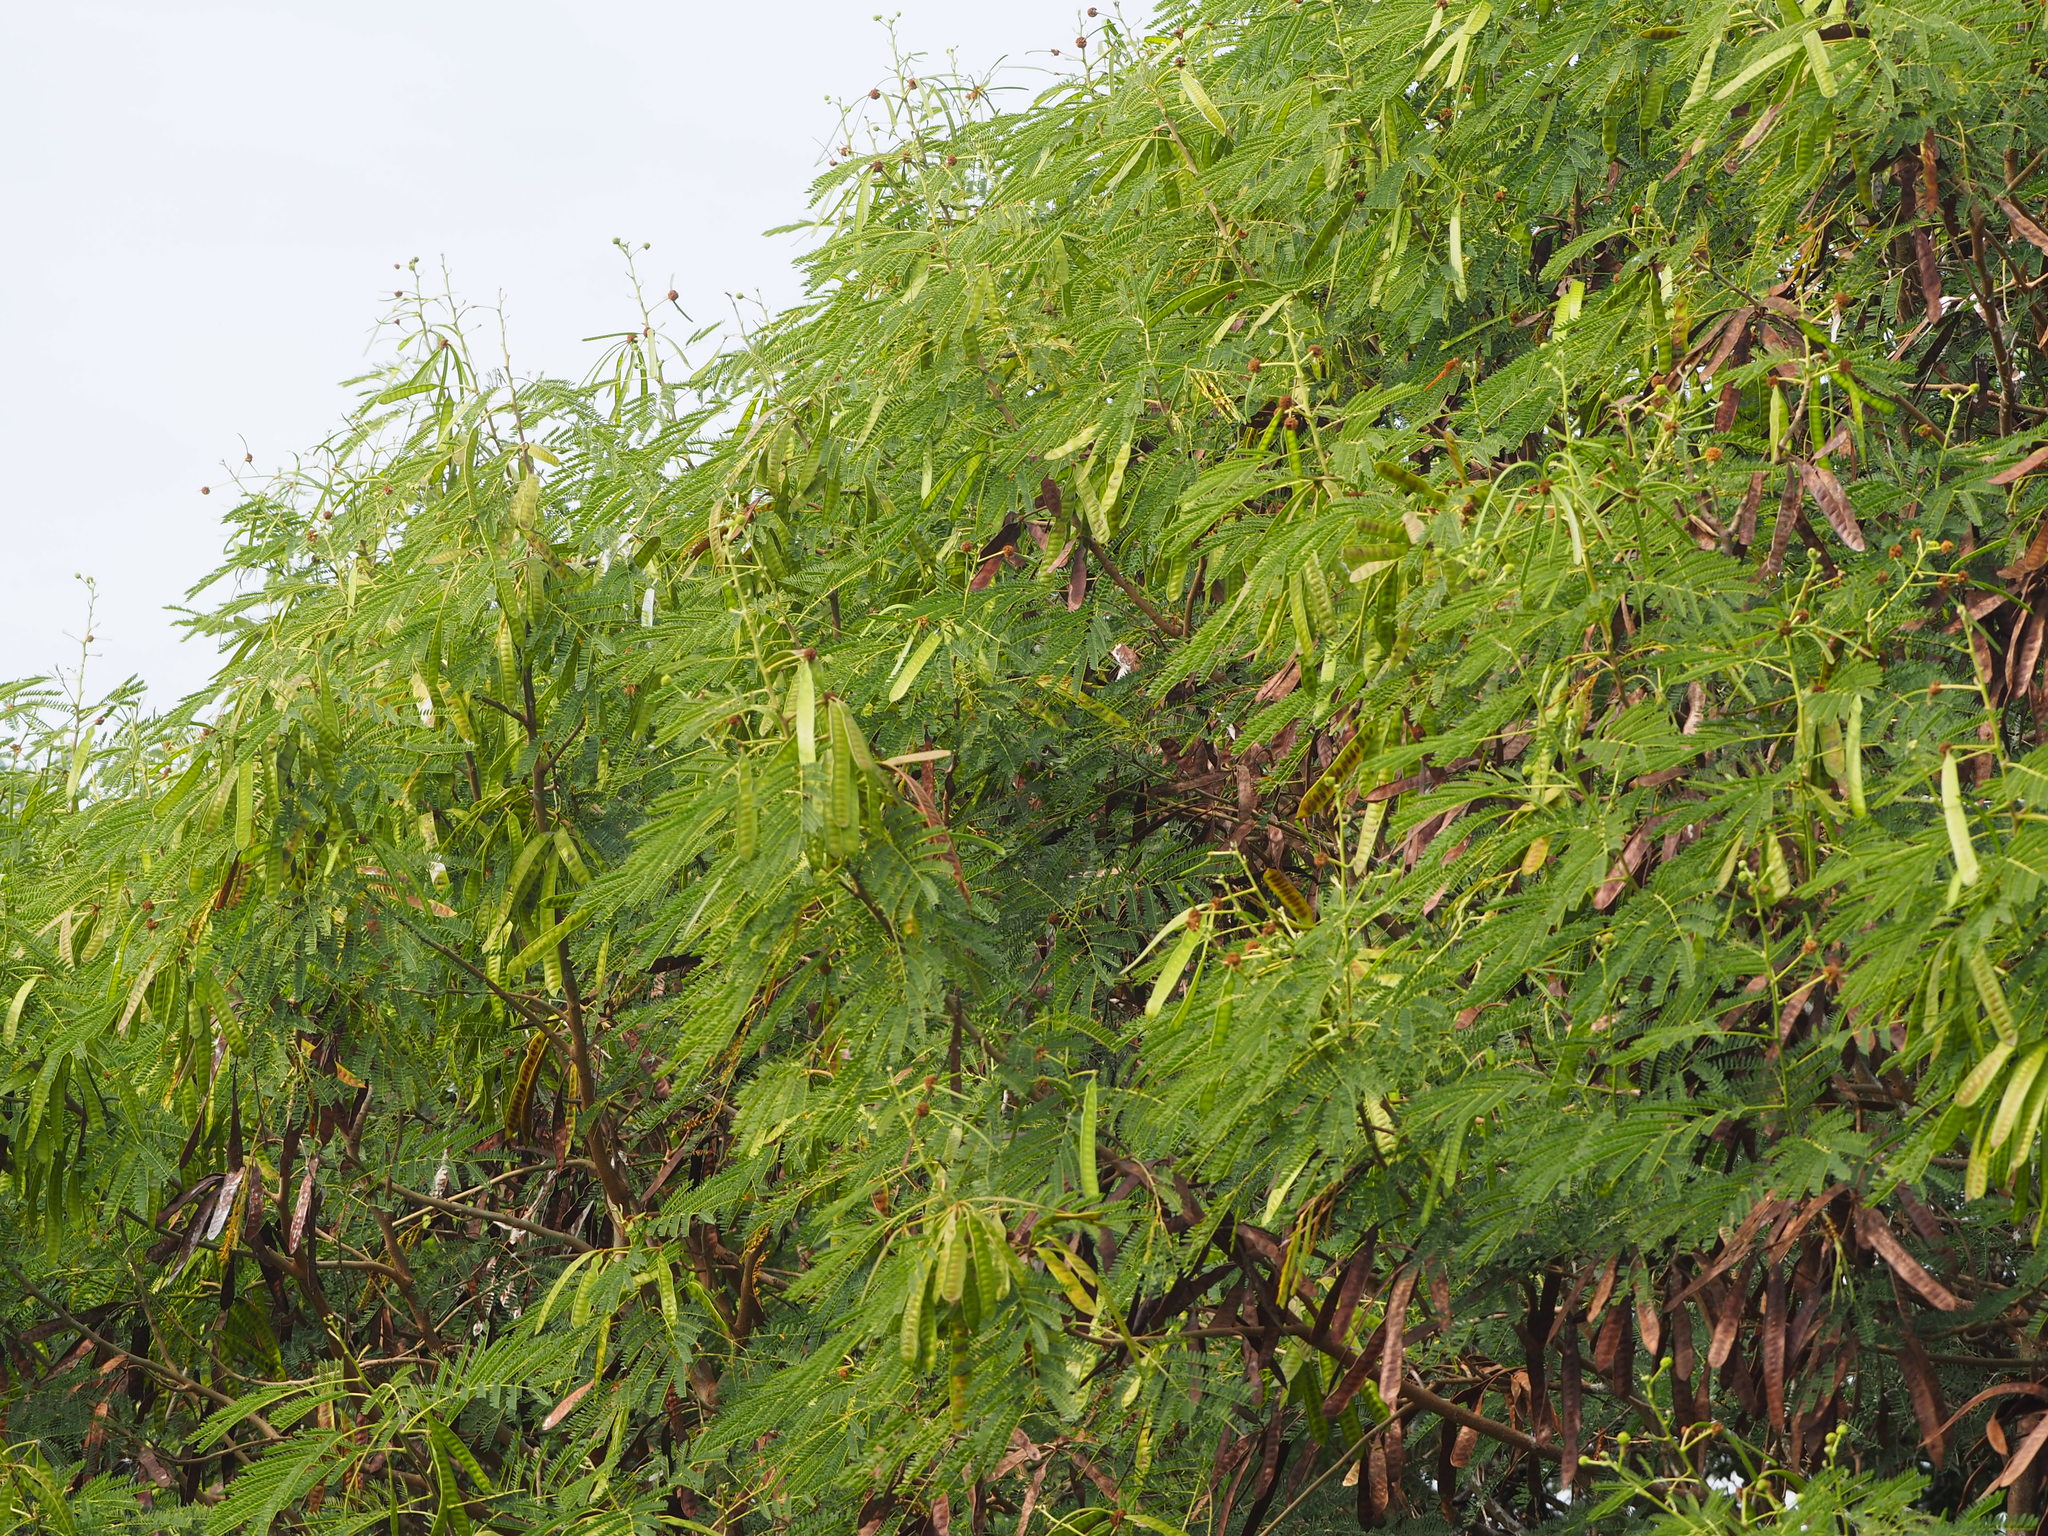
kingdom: Plantae
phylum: Tracheophyta
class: Magnoliopsida
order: Fabales
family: Fabaceae
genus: Leucaena
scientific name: Leucaena leucocephala
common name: White leadtree
